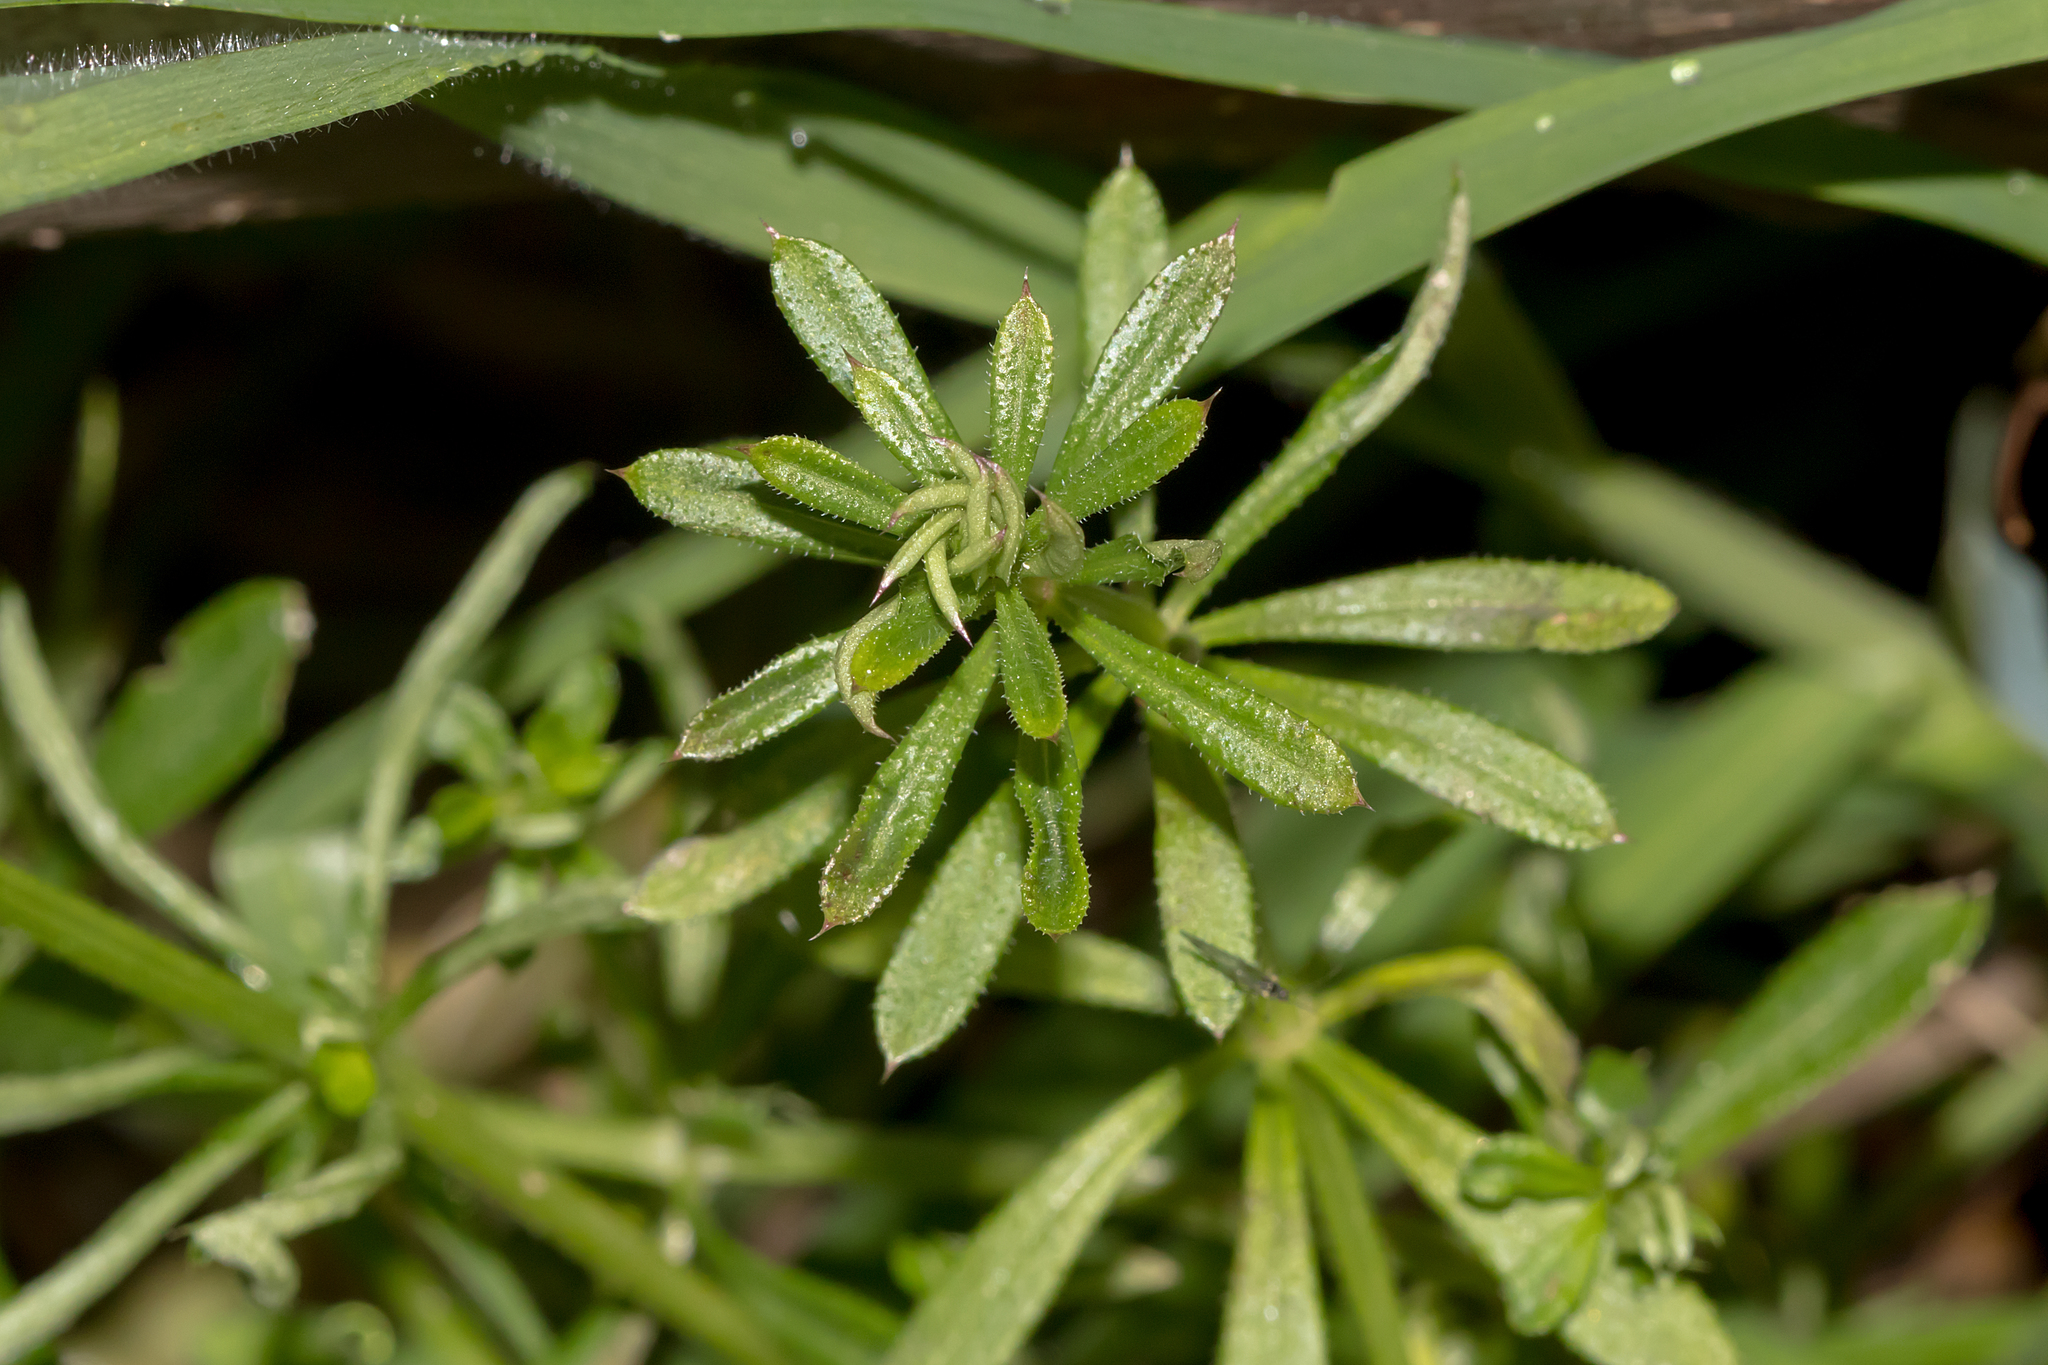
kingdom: Plantae
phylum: Tracheophyta
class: Magnoliopsida
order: Gentianales
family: Rubiaceae
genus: Galium
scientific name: Galium aparine
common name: Cleavers
